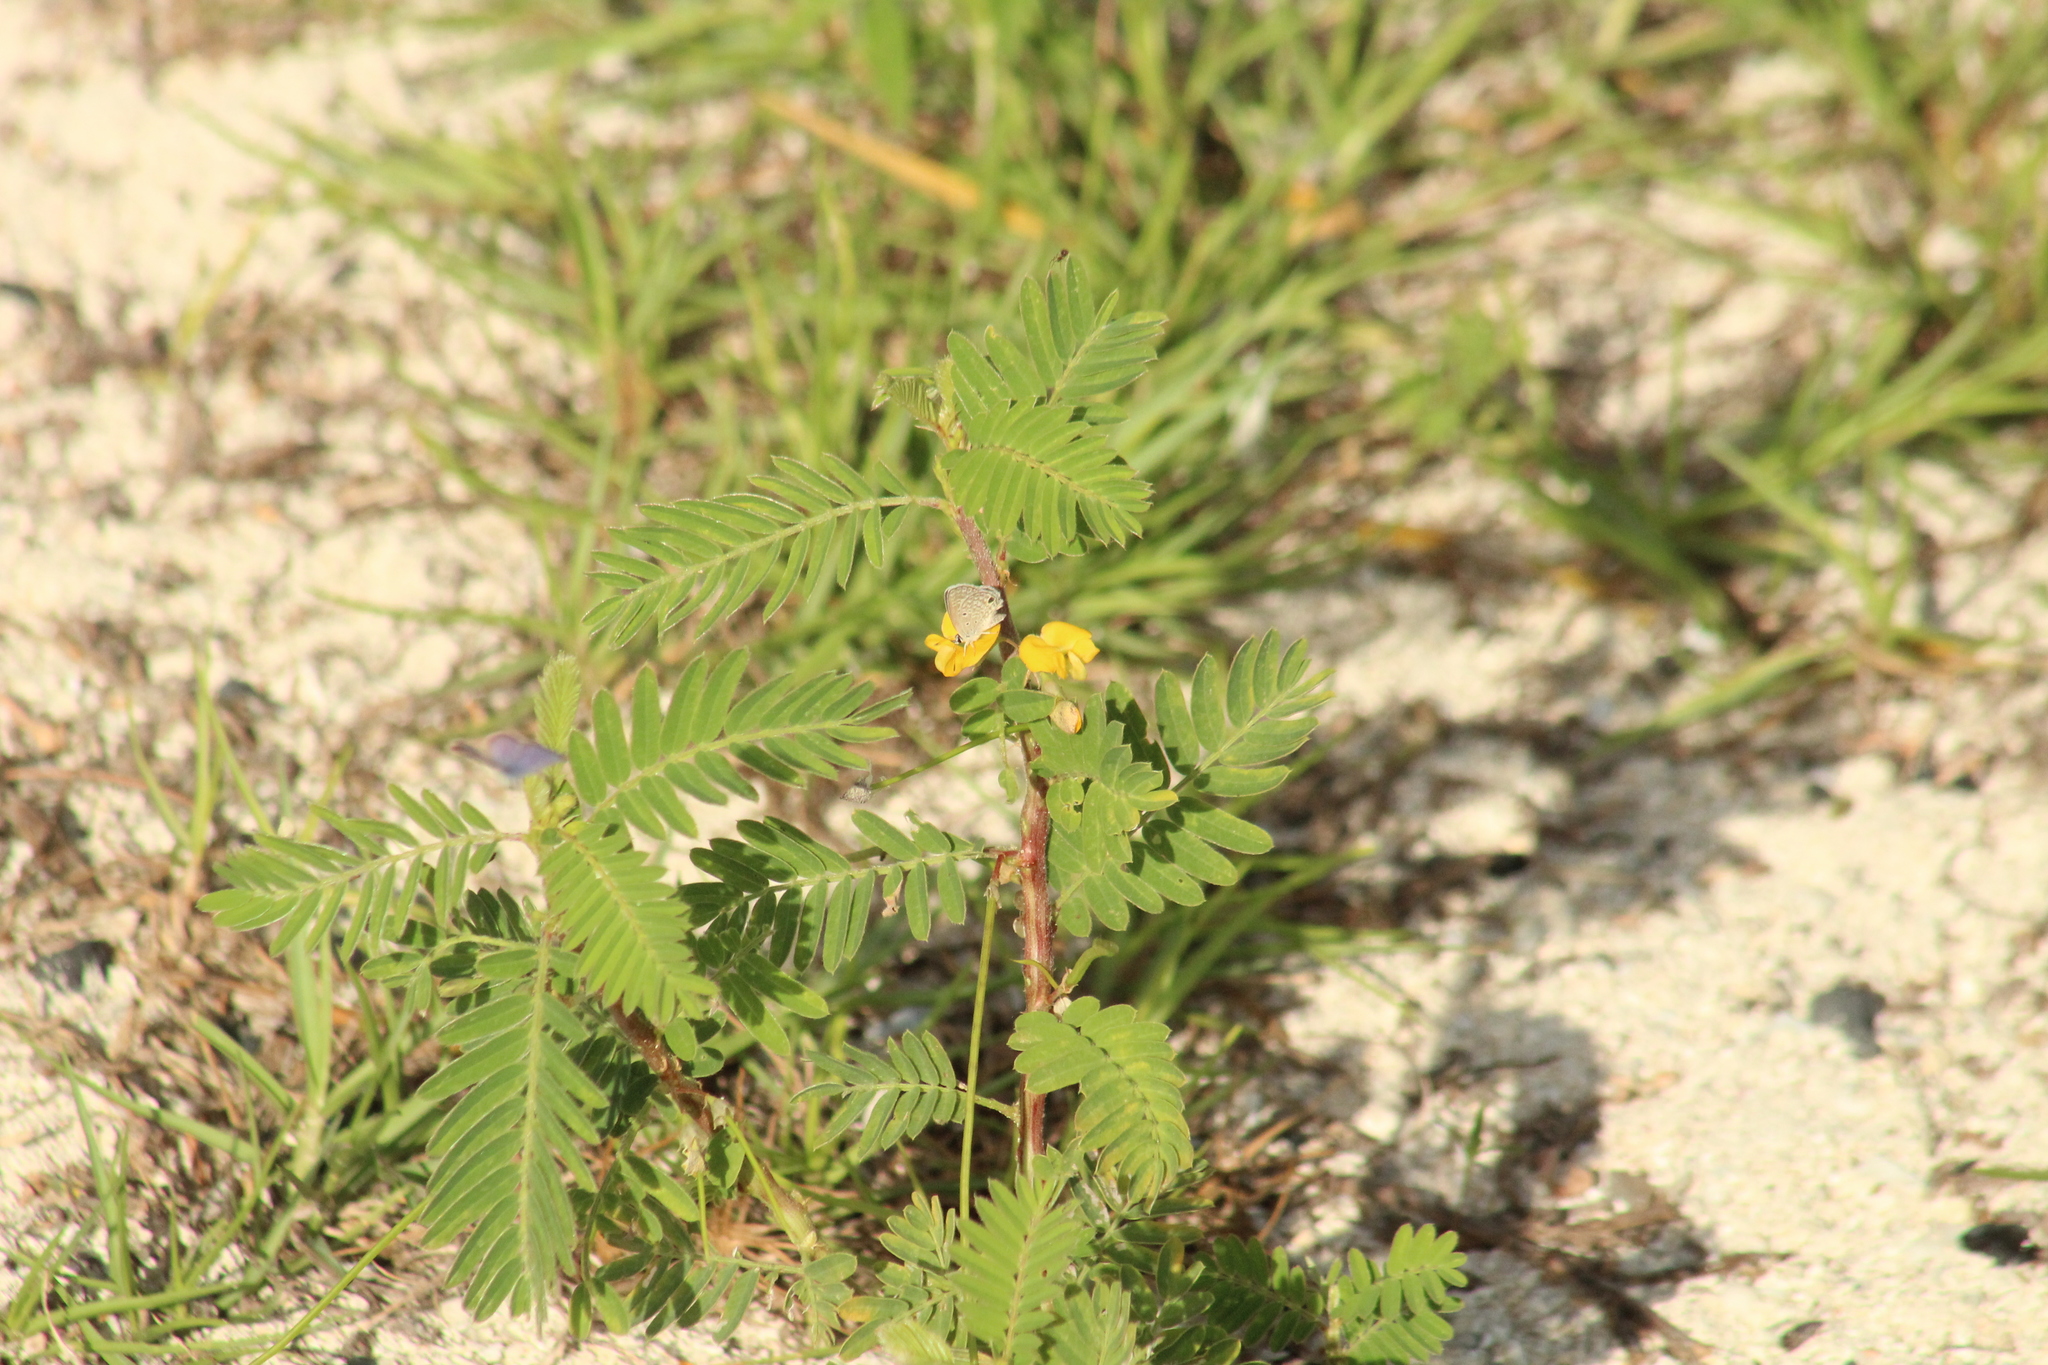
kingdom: Animalia
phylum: Arthropoda
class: Insecta
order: Lepidoptera
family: Lycaenidae
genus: Hemiargus
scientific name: Hemiargus hanno
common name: Common blue
